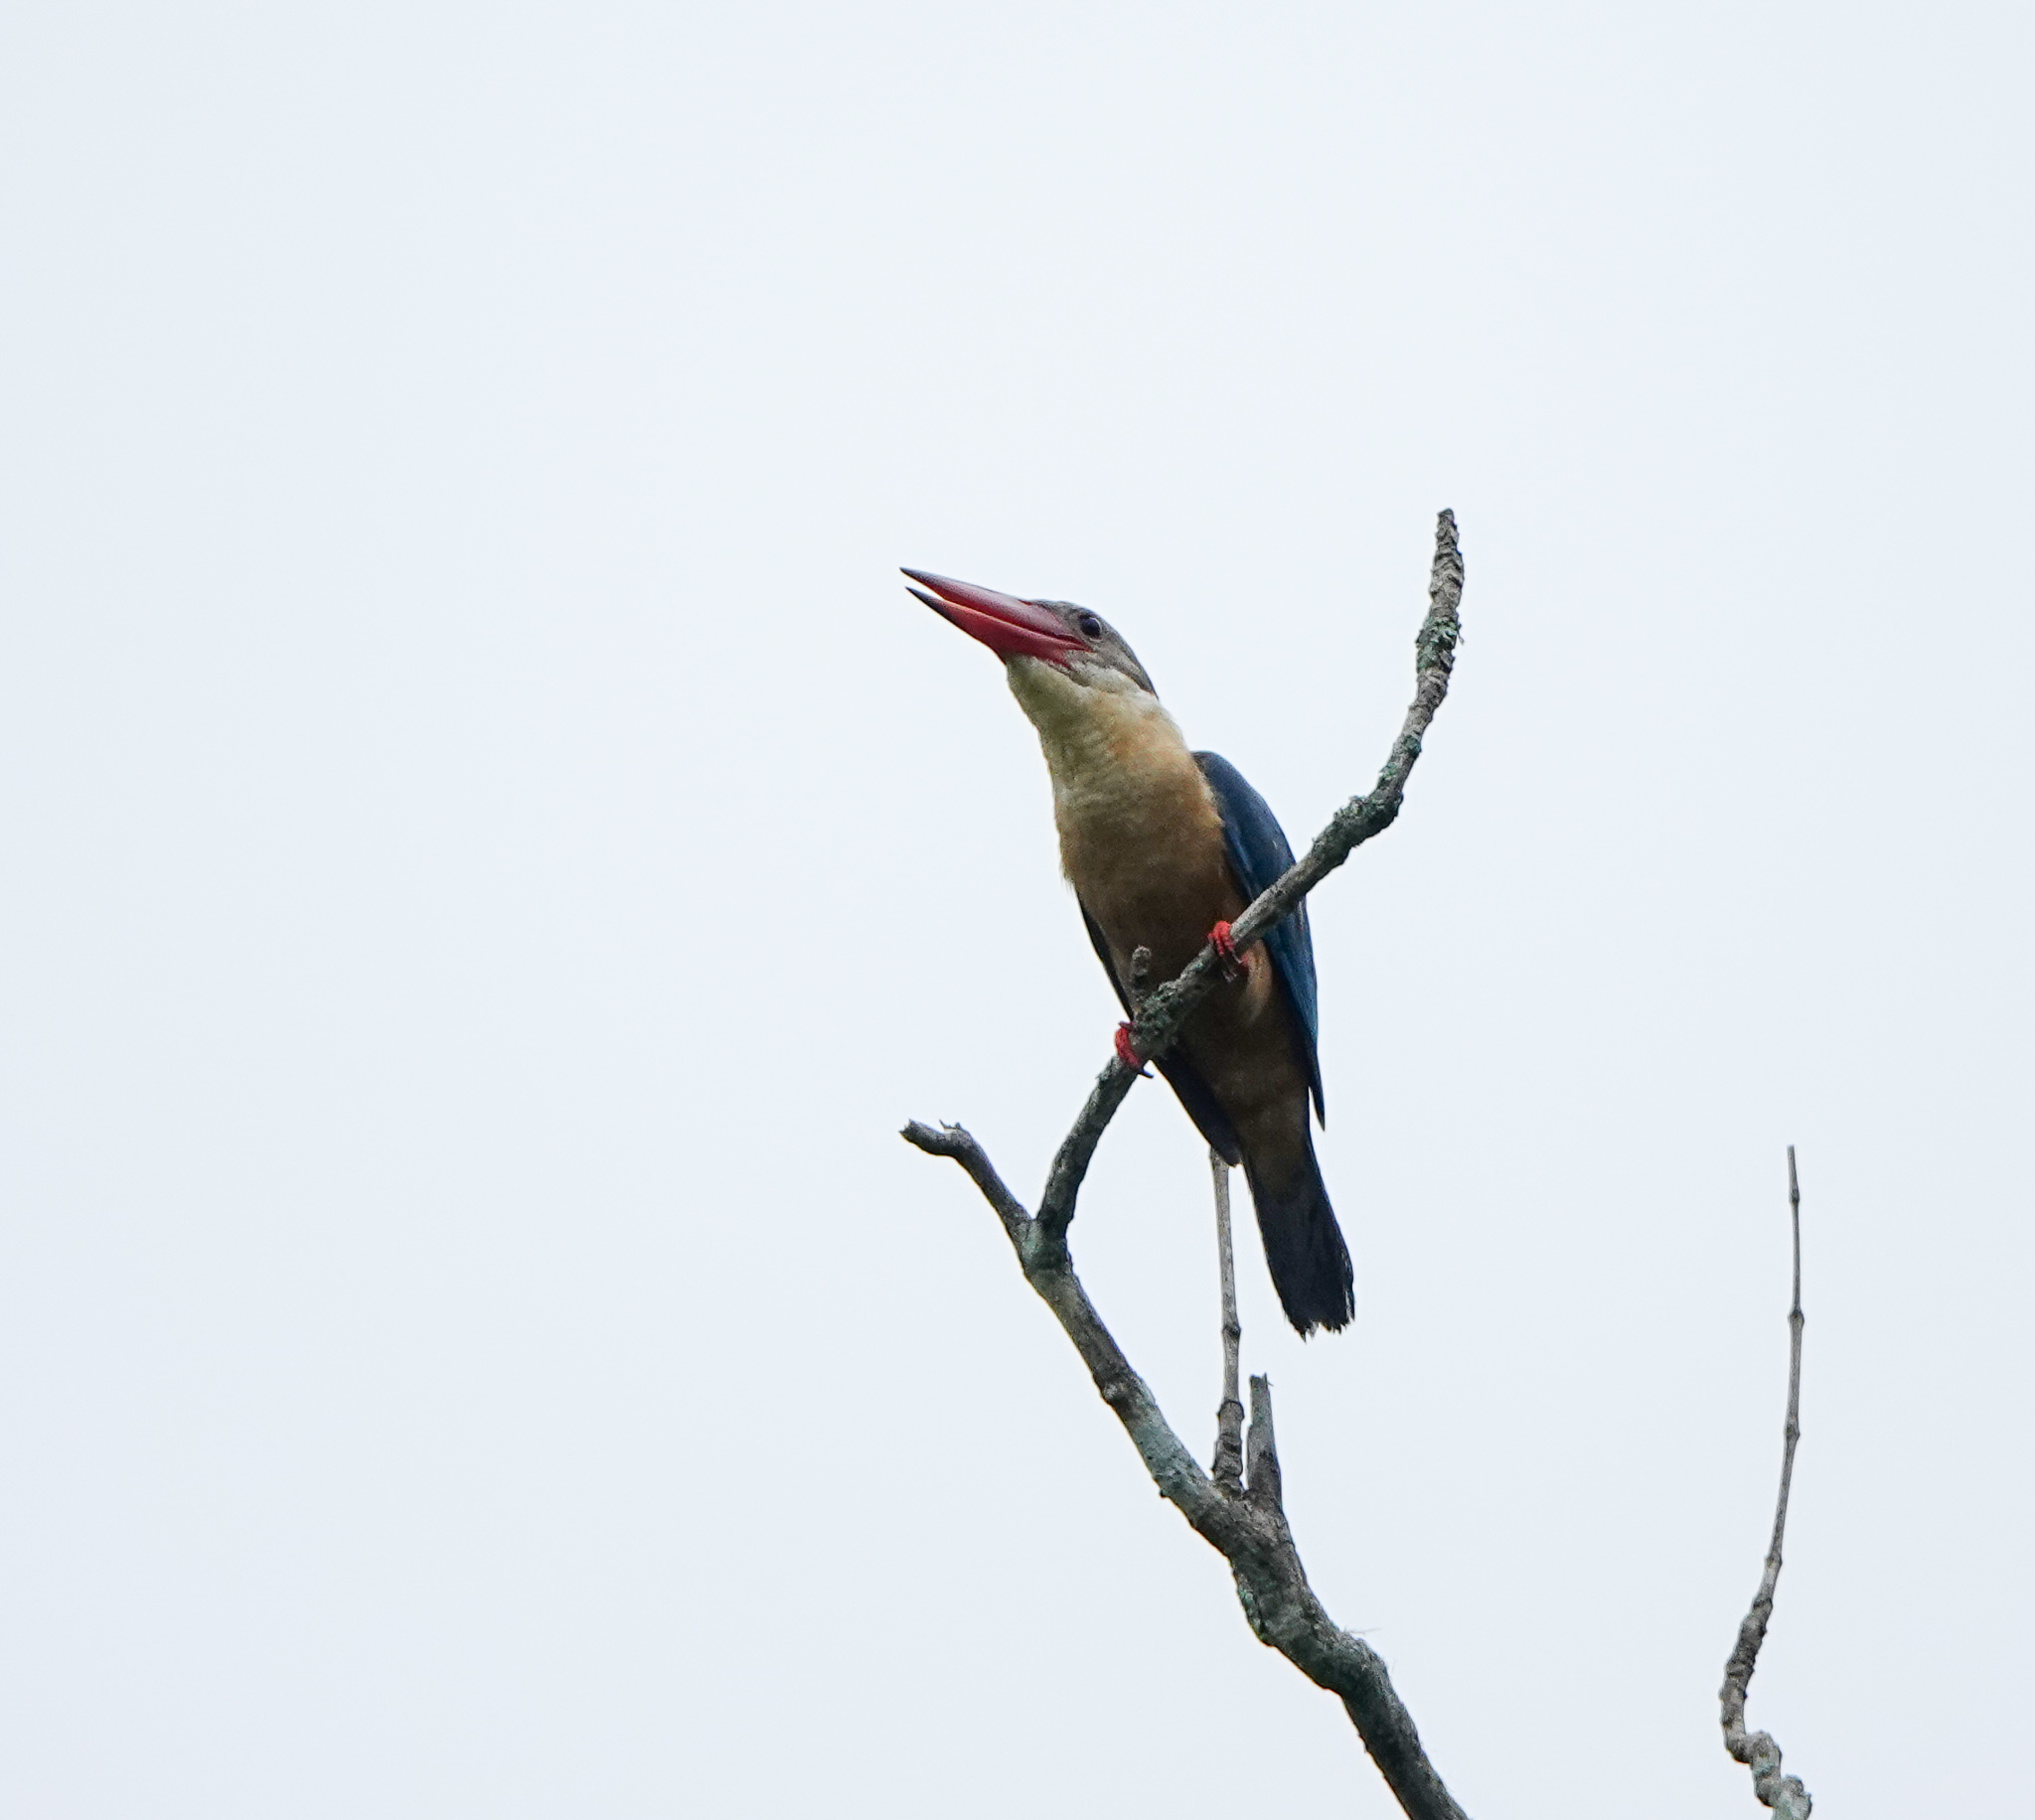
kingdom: Animalia
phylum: Chordata
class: Aves
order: Coraciiformes
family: Alcedinidae
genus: Pelargopsis
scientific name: Pelargopsis capensis
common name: Stork-billed kingfisher
